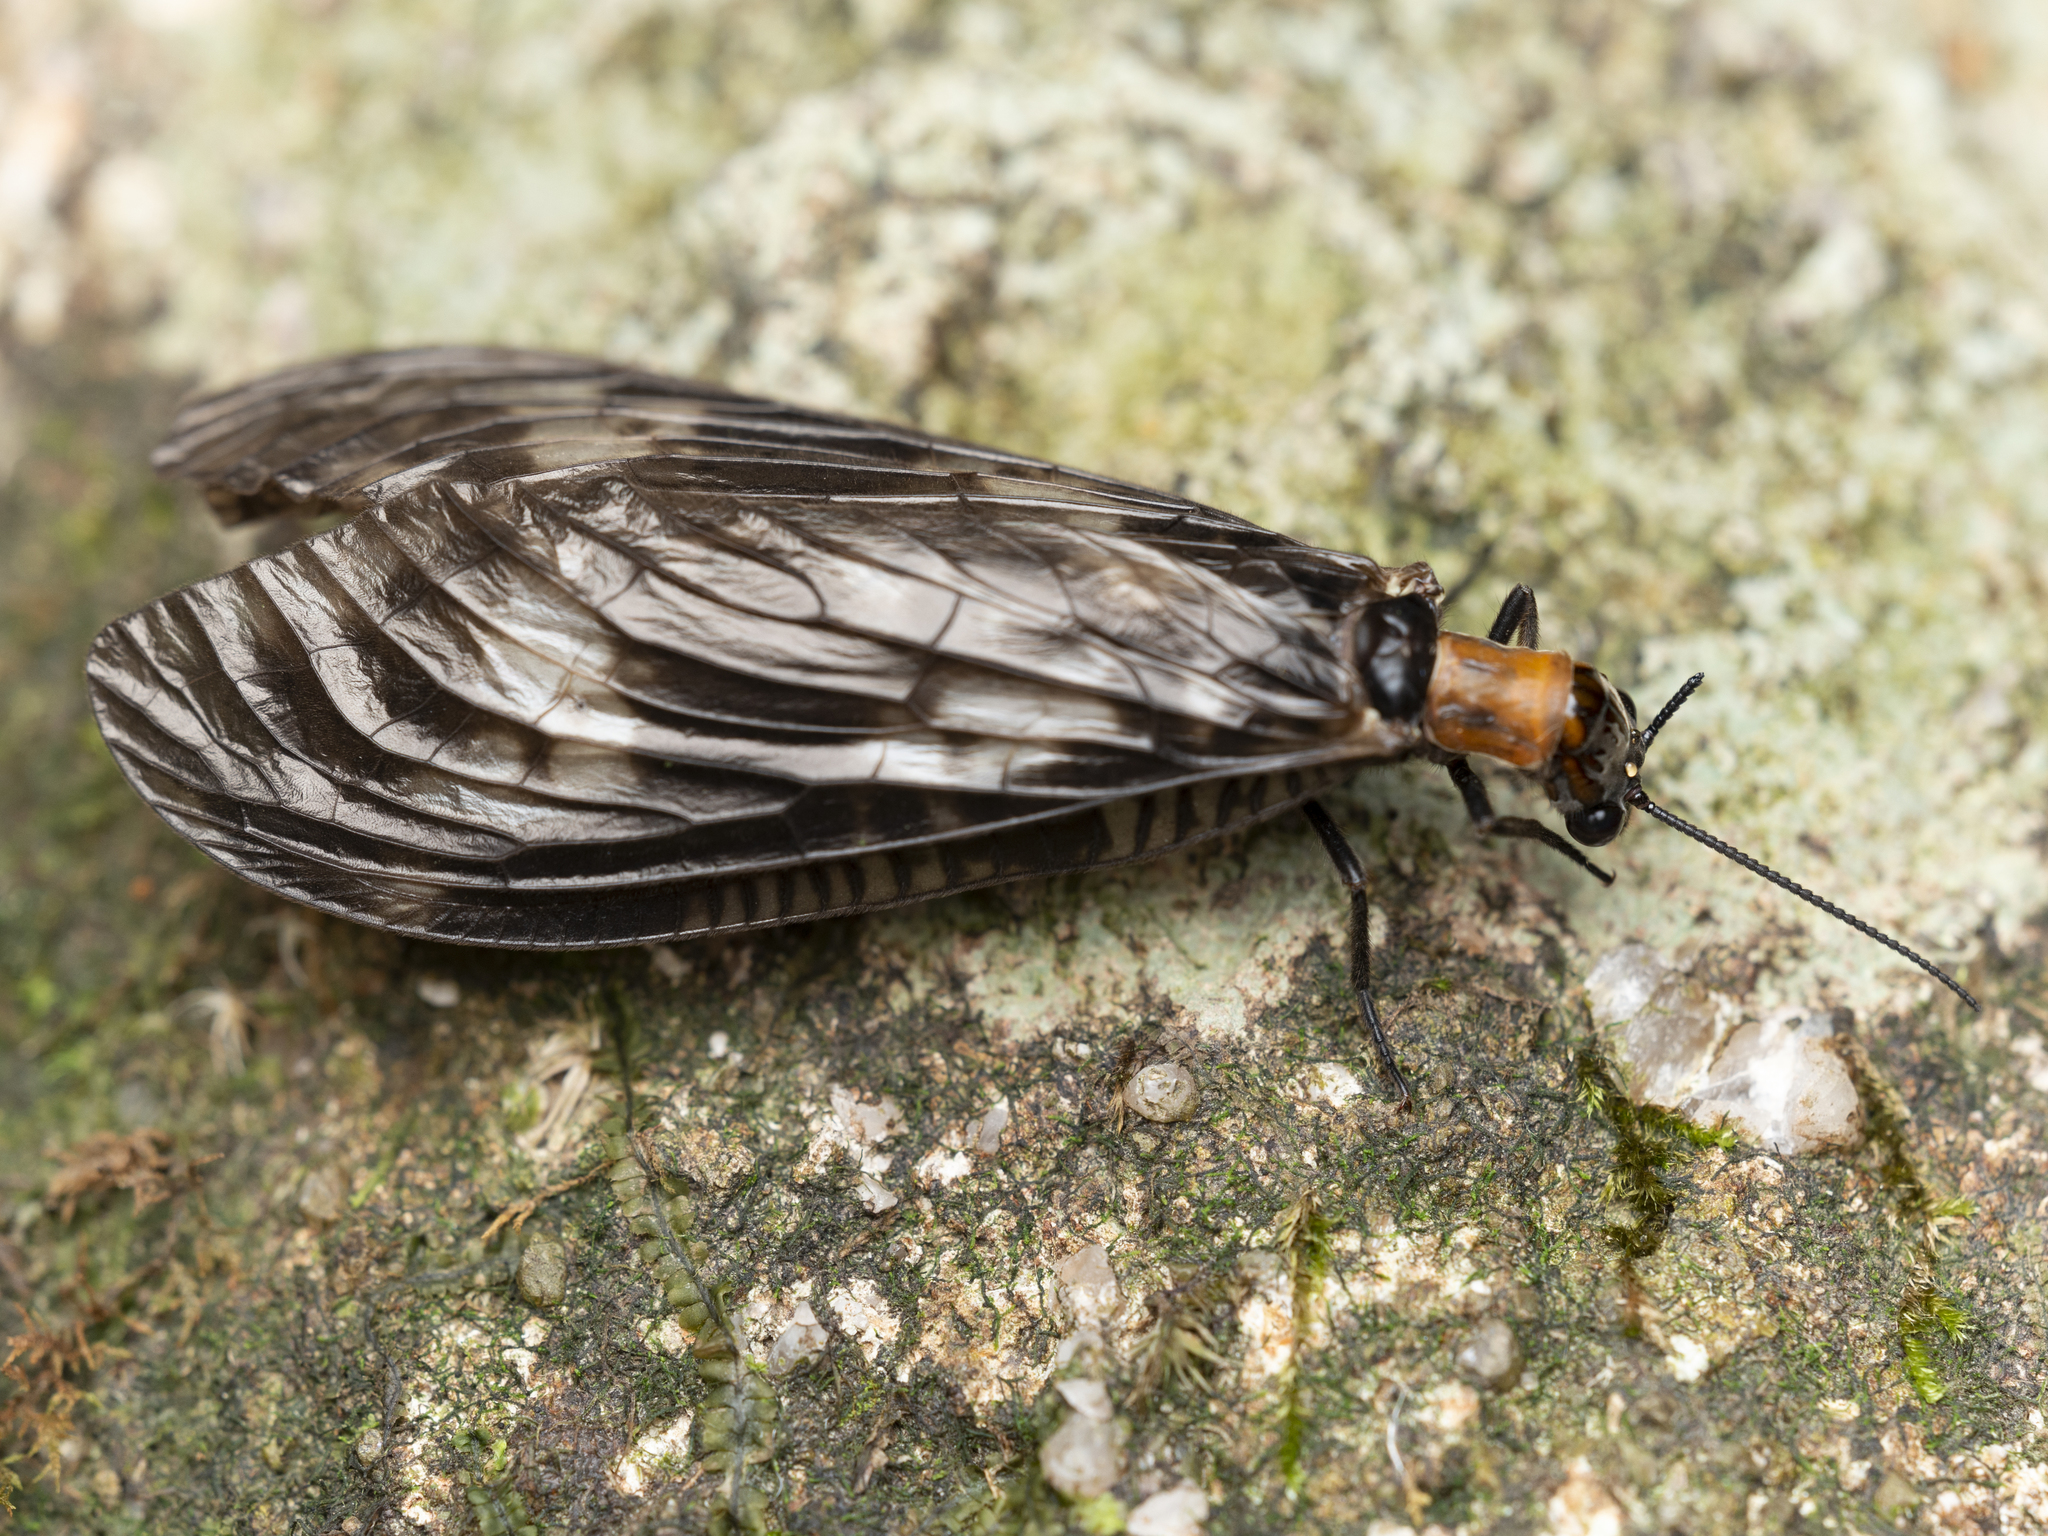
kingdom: Animalia
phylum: Arthropoda
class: Insecta
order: Megaloptera
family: Corydalidae
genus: Neochauliodes
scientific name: Neochauliodes koreanus
